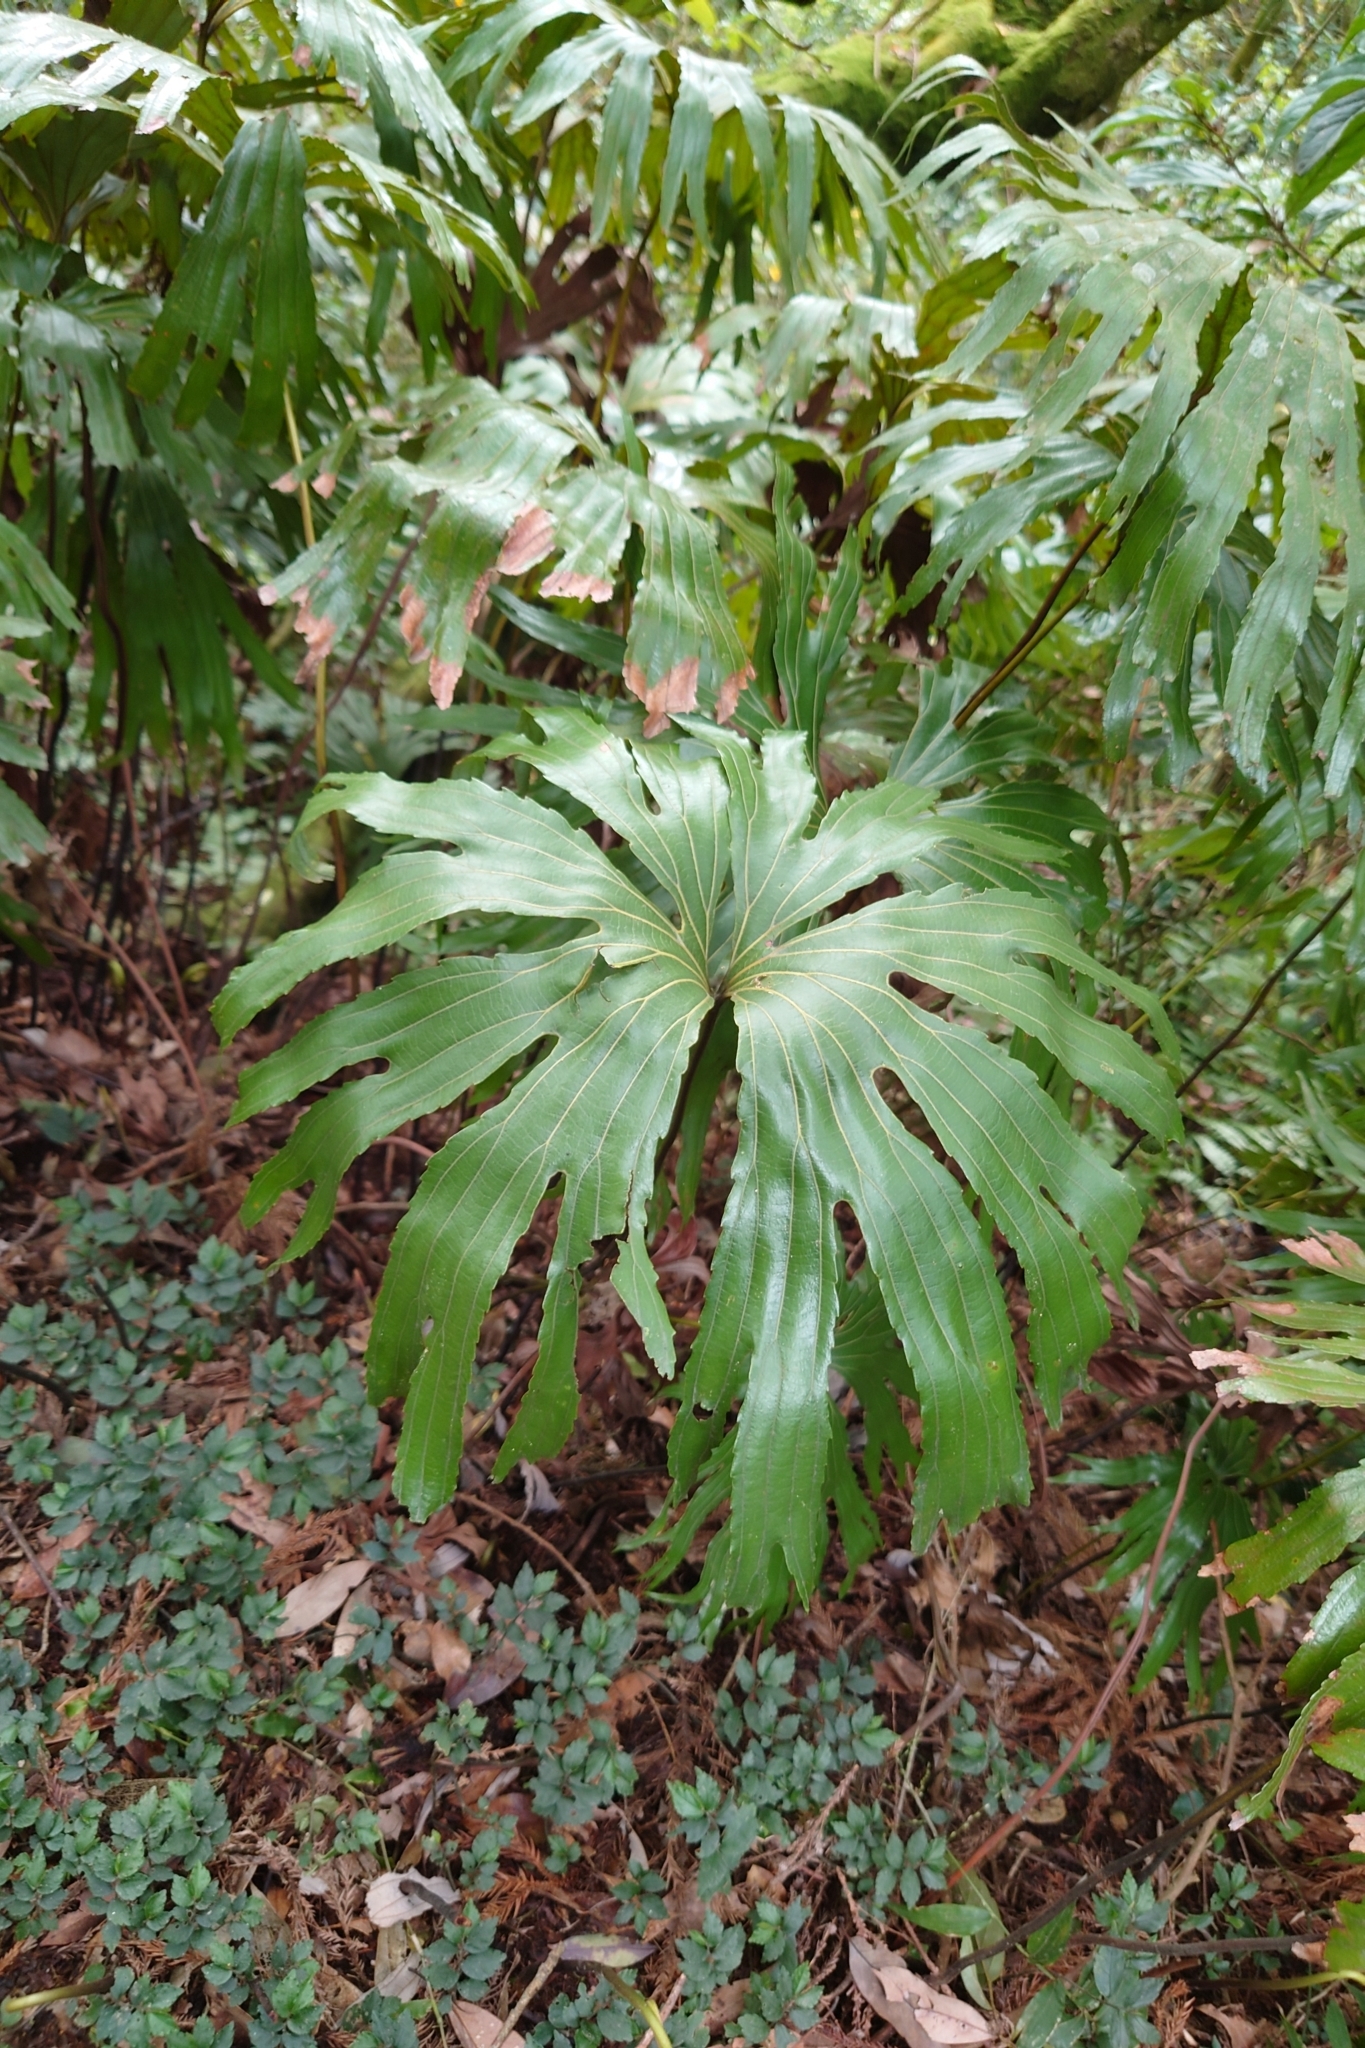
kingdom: Plantae
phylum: Tracheophyta
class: Polypodiopsida
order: Gleicheniales
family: Dipteridaceae
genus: Dipteris
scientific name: Dipteris conjugata
